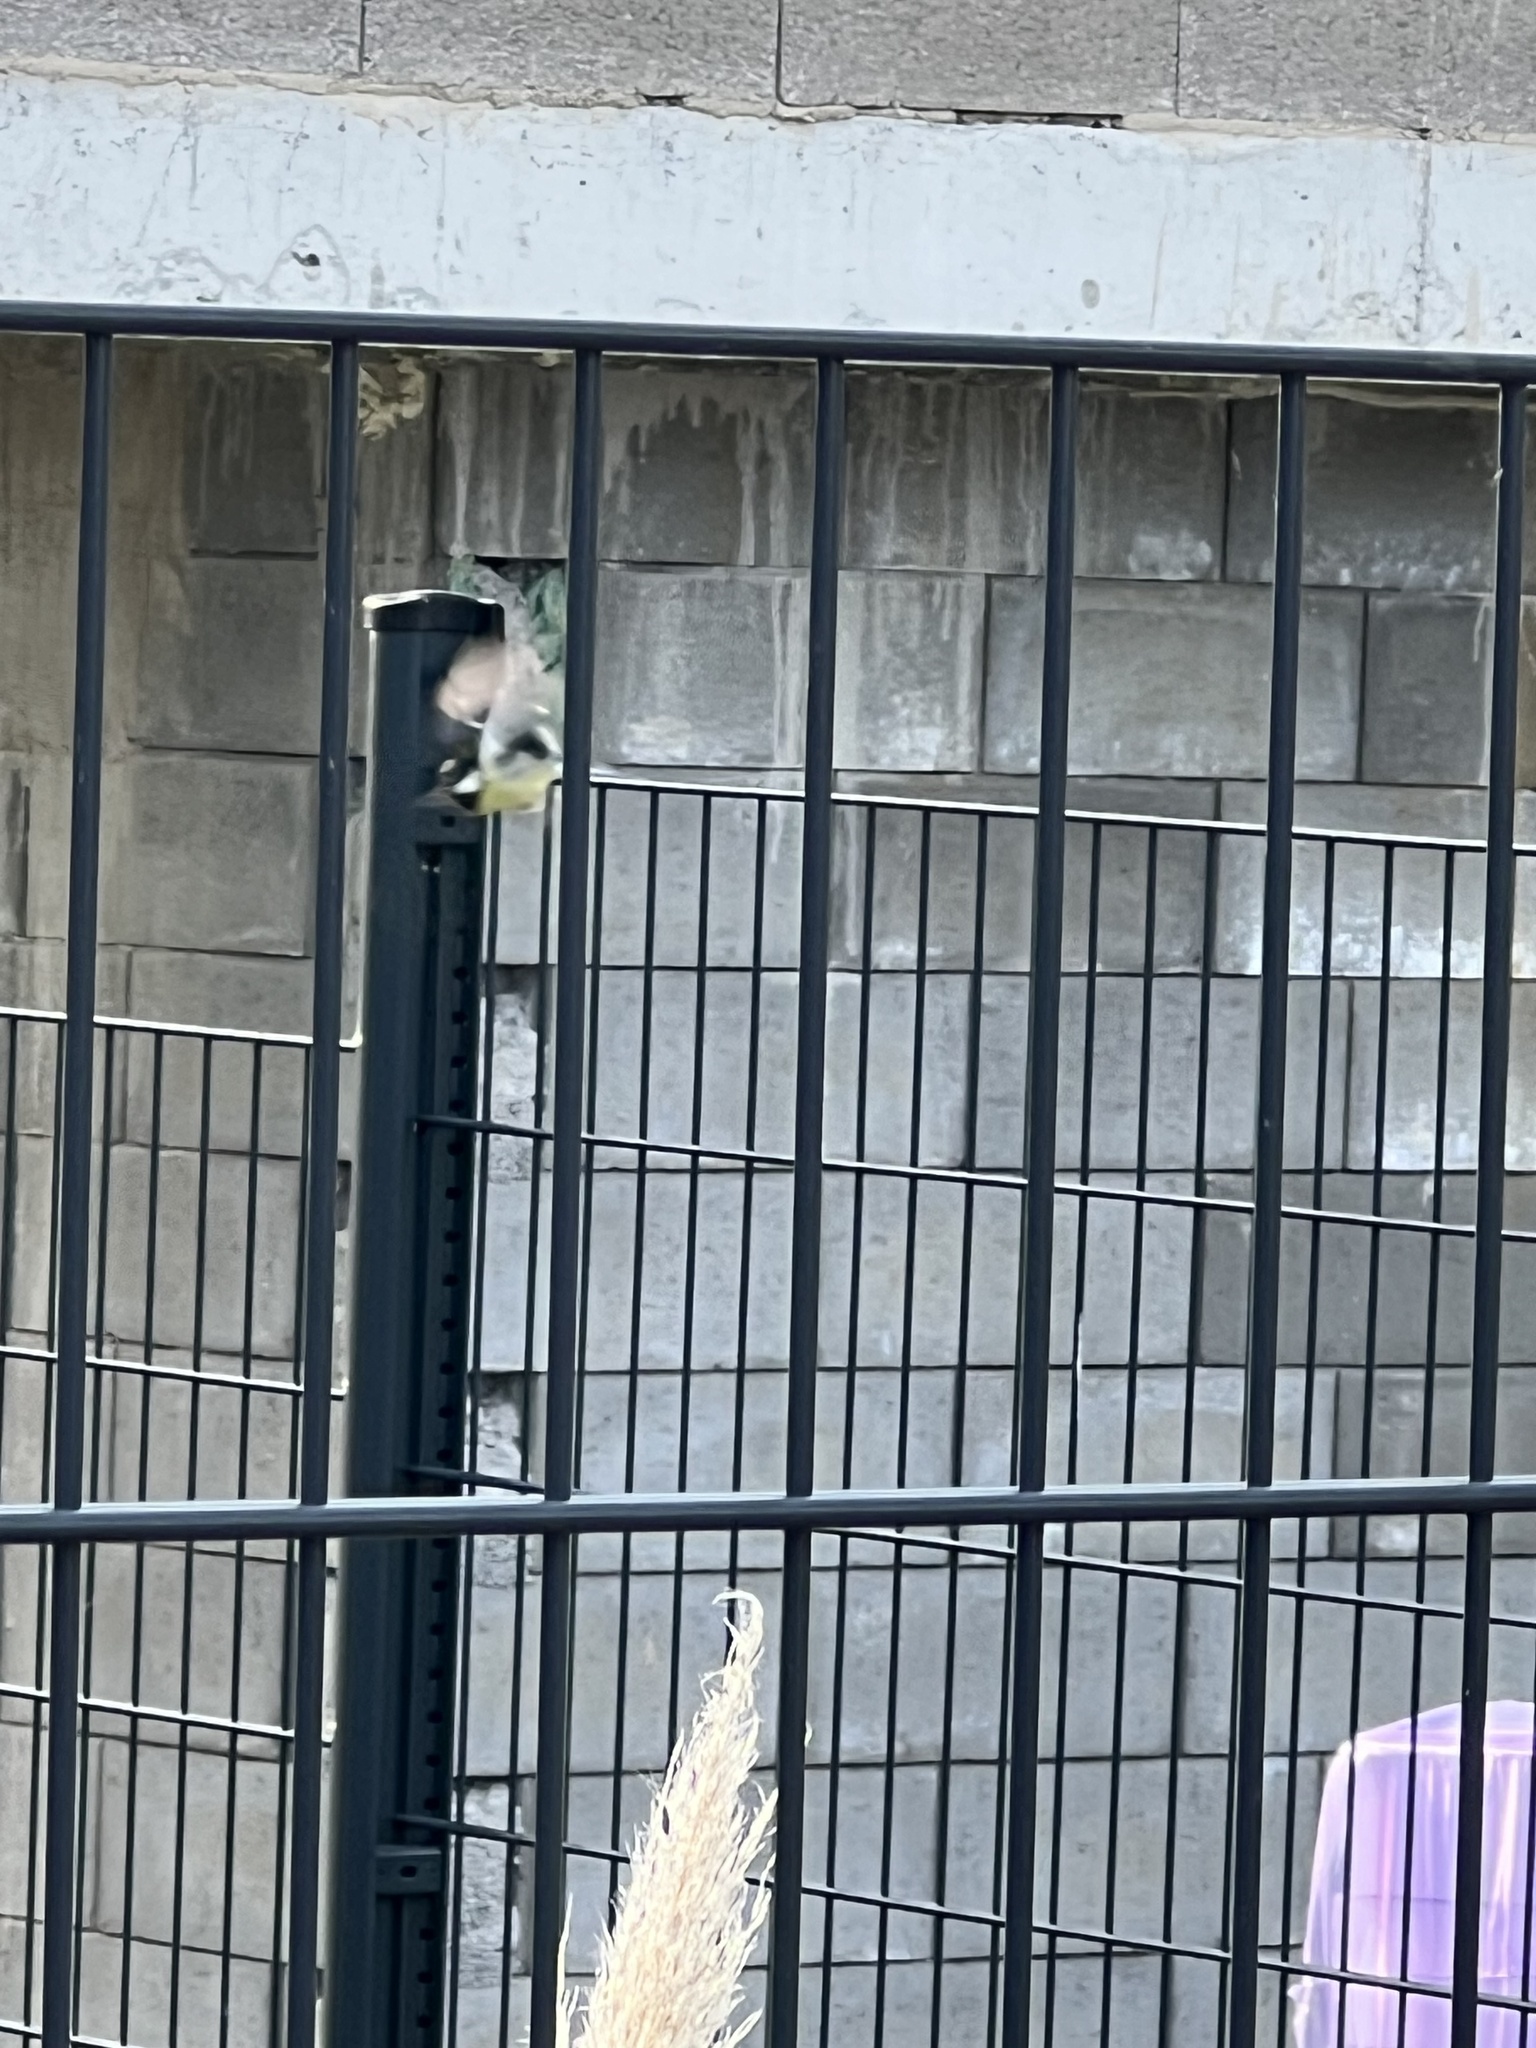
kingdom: Animalia
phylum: Chordata
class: Aves
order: Passeriformes
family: Paridae
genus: Parus
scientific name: Parus major
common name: Great tit
